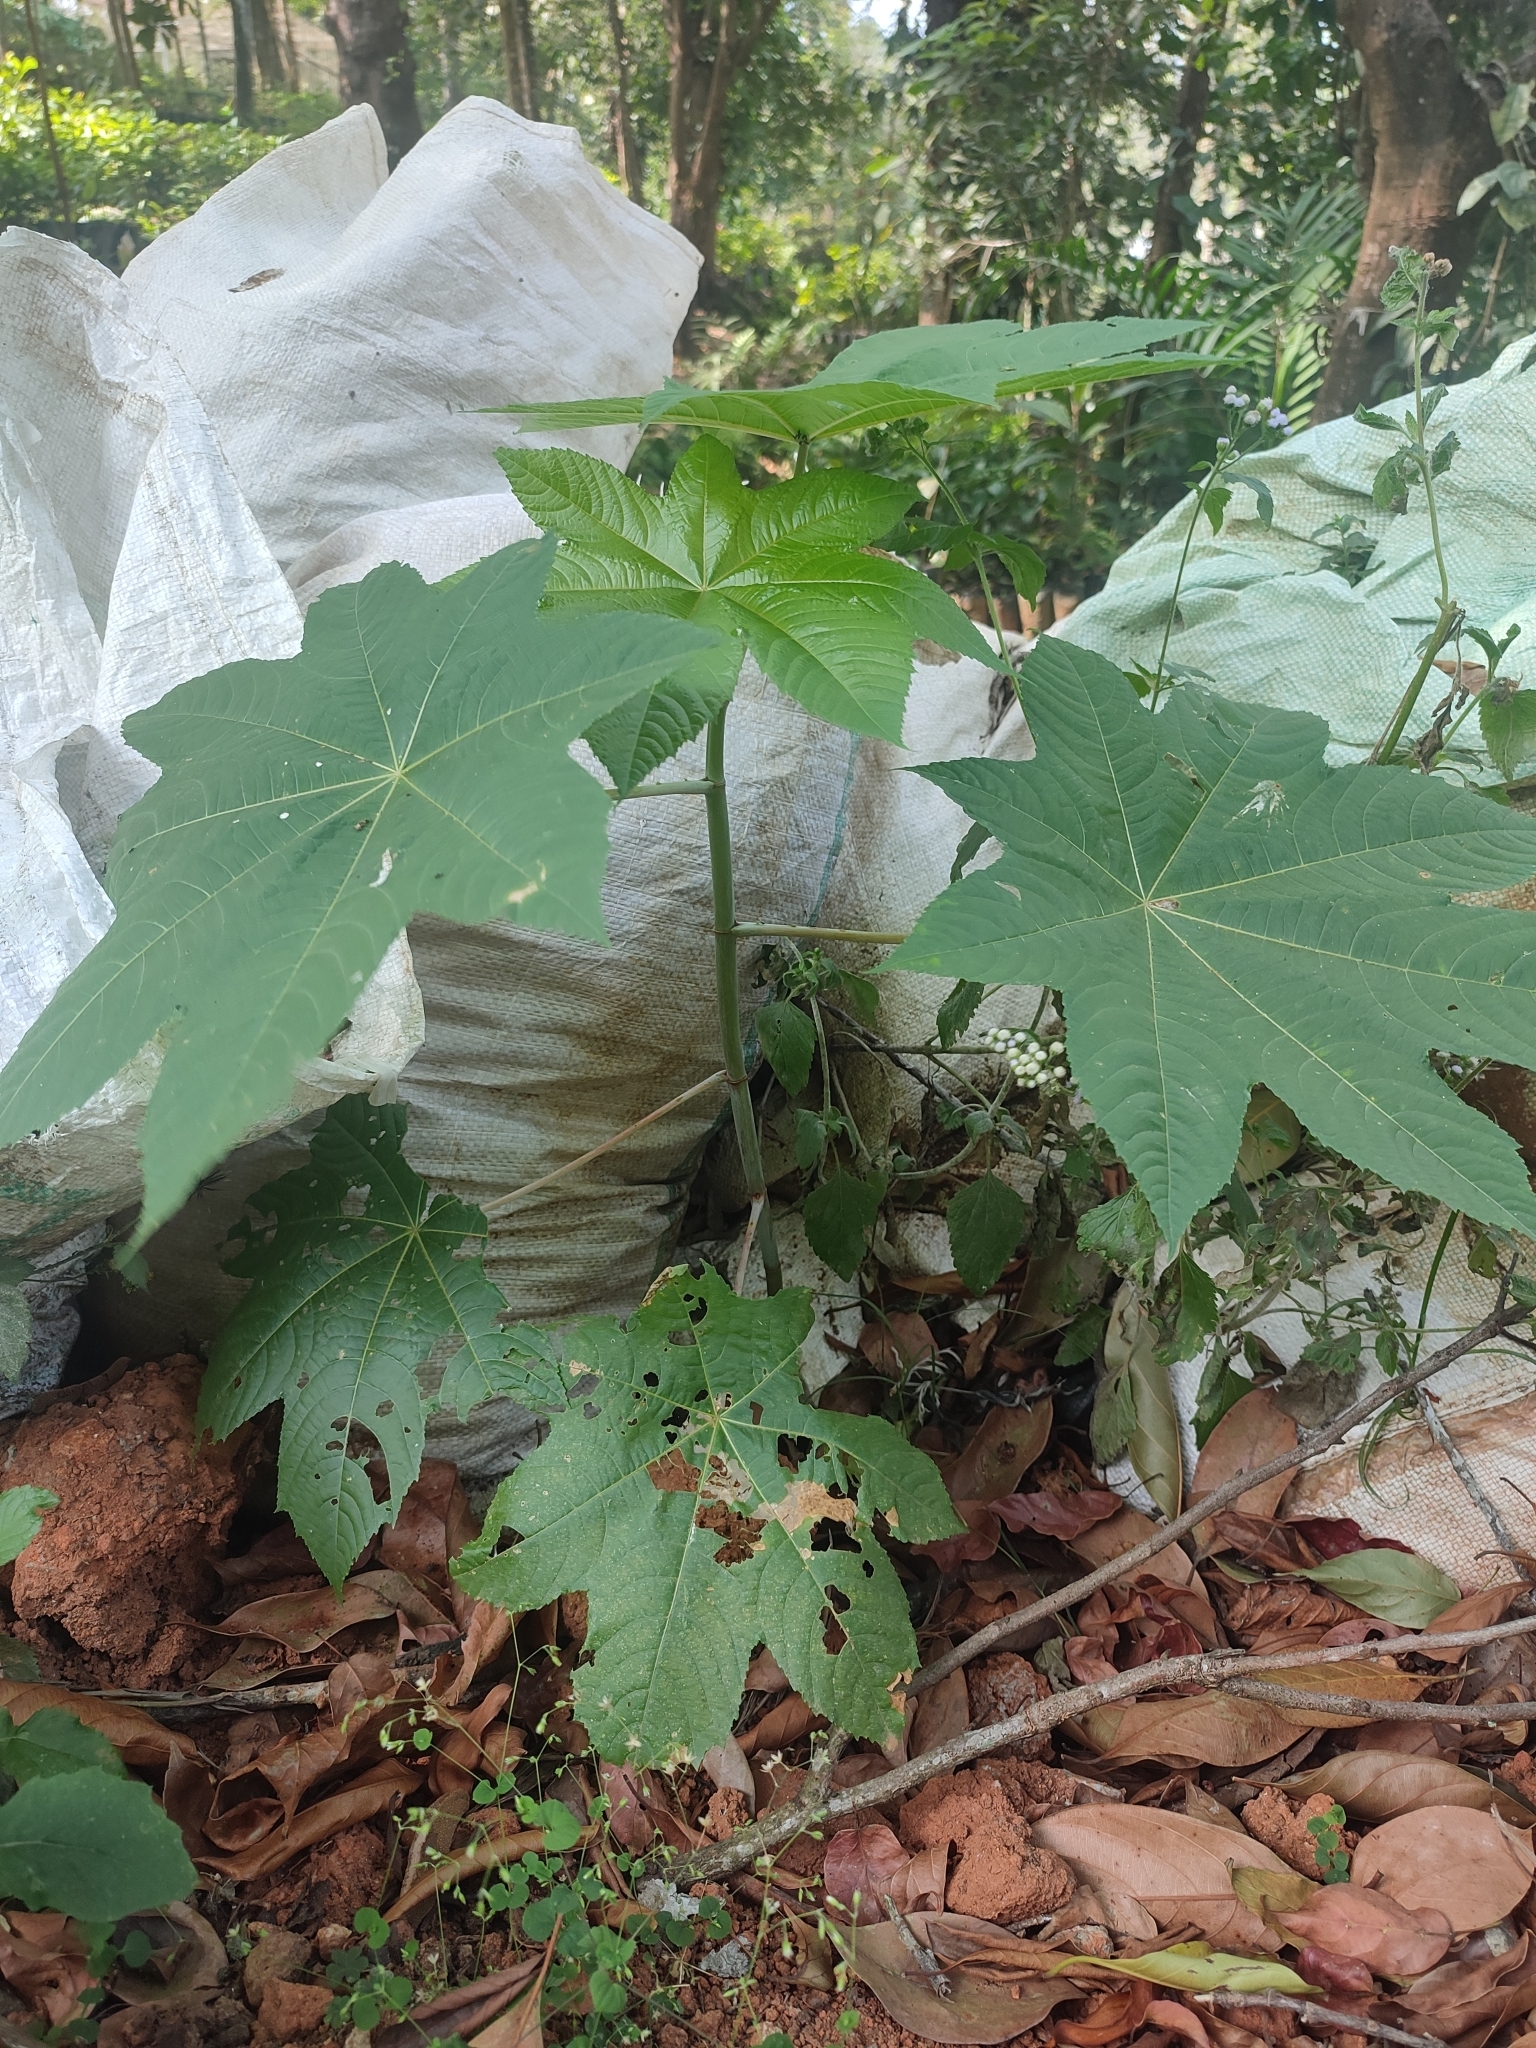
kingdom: Plantae
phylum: Tracheophyta
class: Magnoliopsida
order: Malpighiales
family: Euphorbiaceae
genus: Ricinus
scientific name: Ricinus communis
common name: Castor-oil-plant
